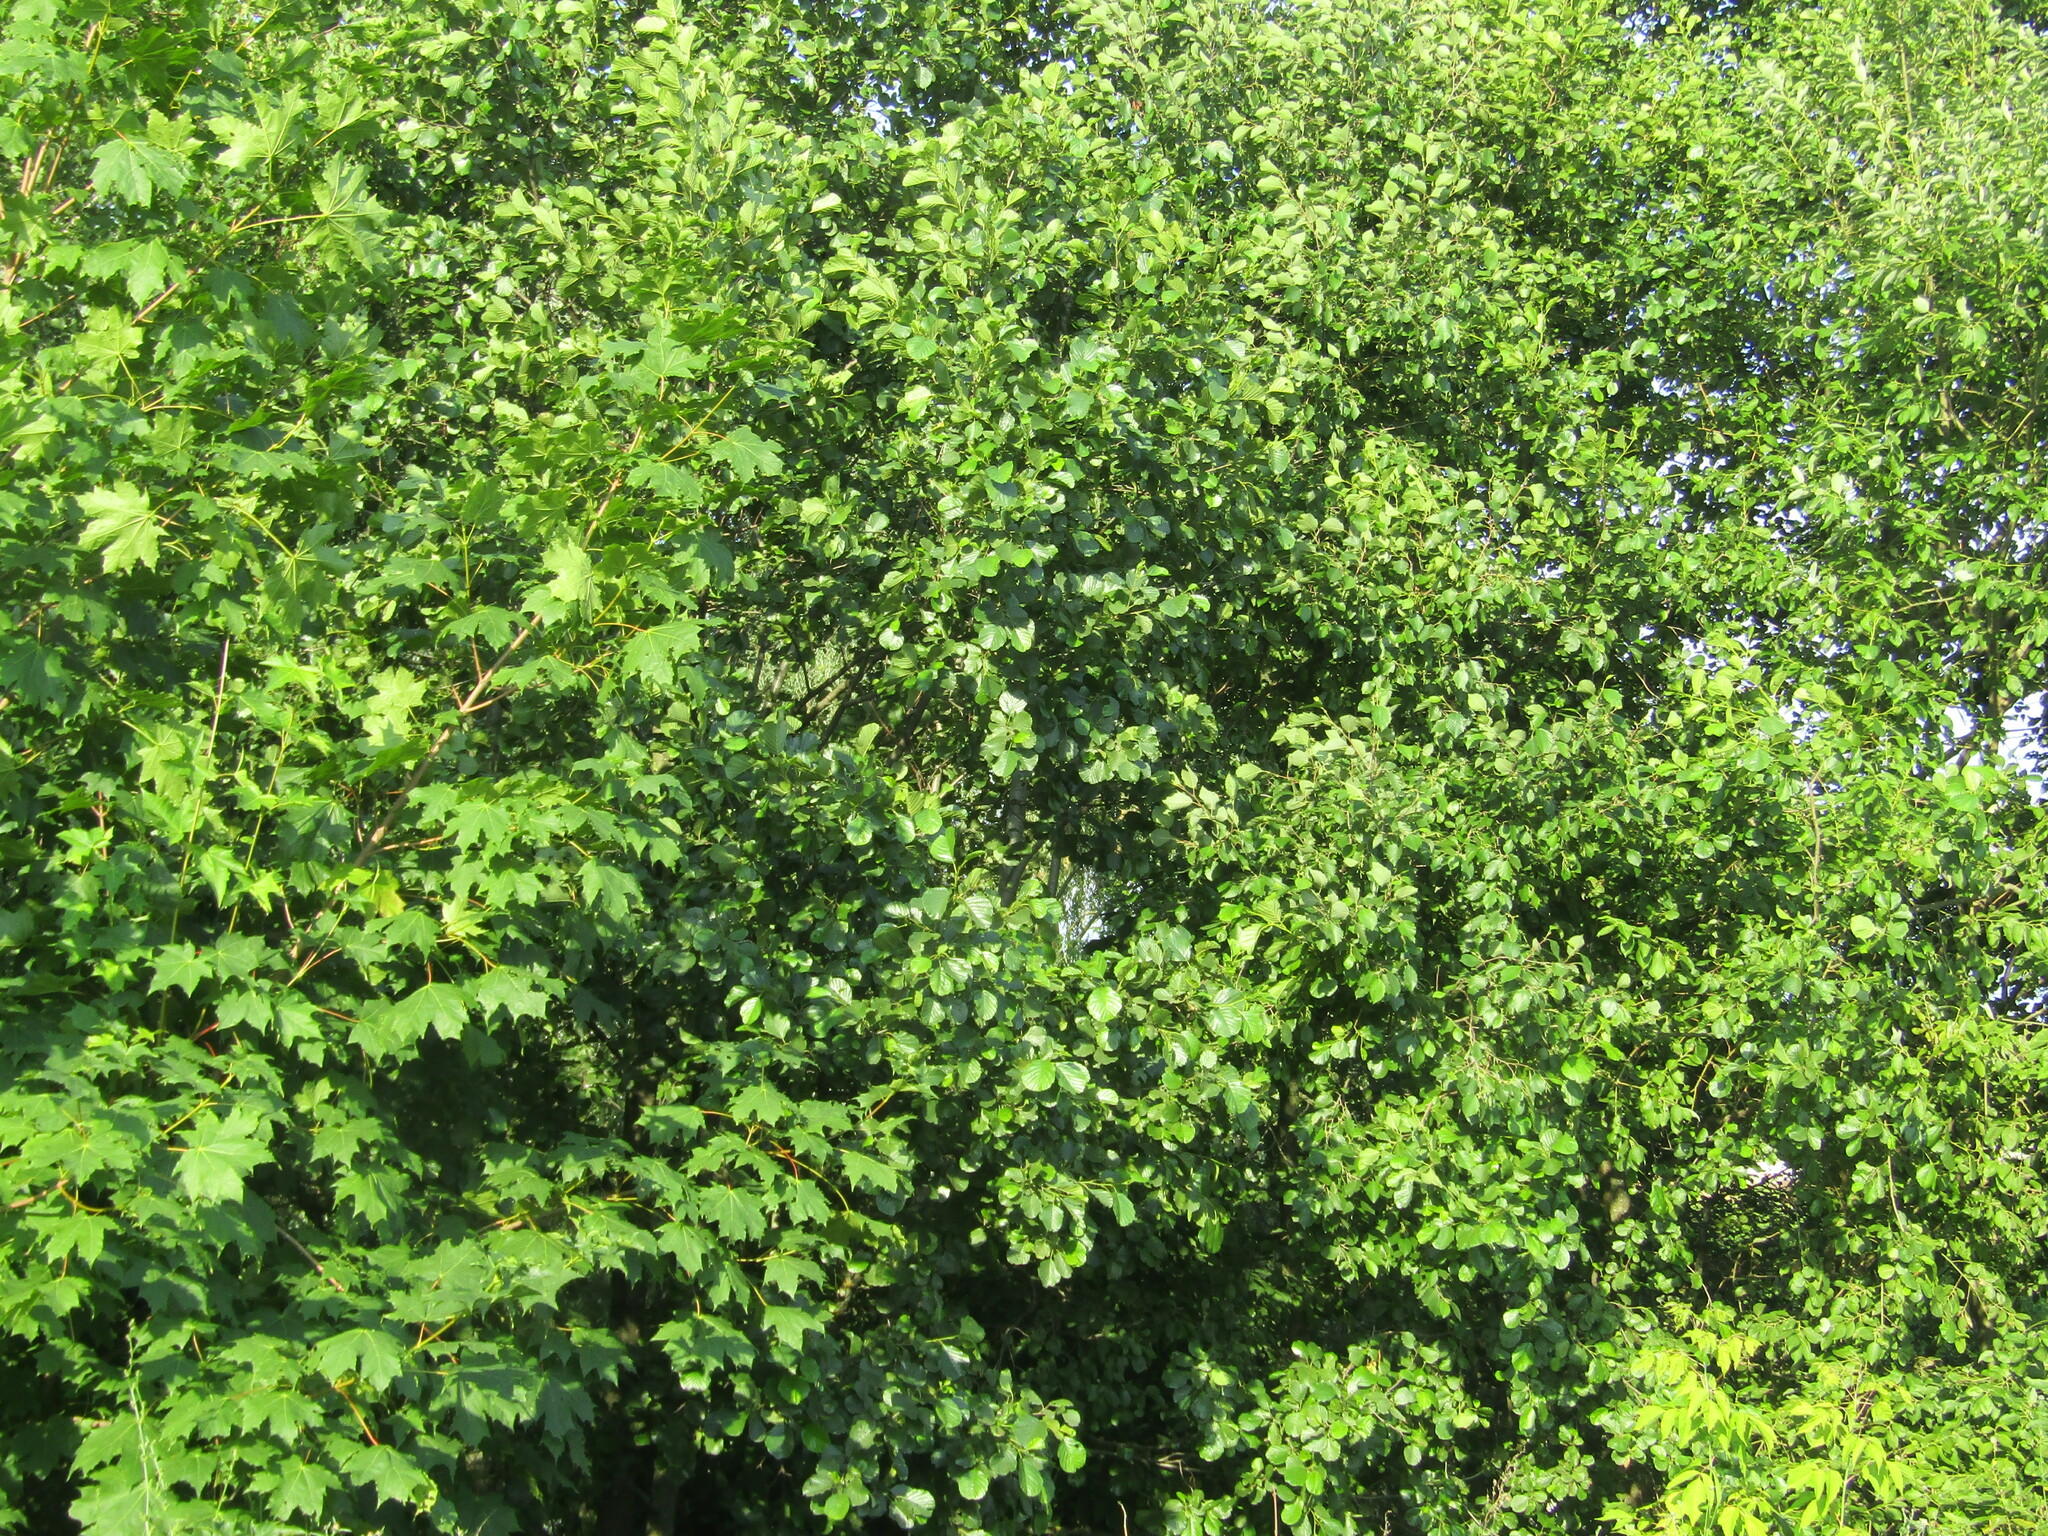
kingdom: Plantae
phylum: Tracheophyta
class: Magnoliopsida
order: Fagales
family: Betulaceae
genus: Alnus
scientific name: Alnus glutinosa
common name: Black alder
